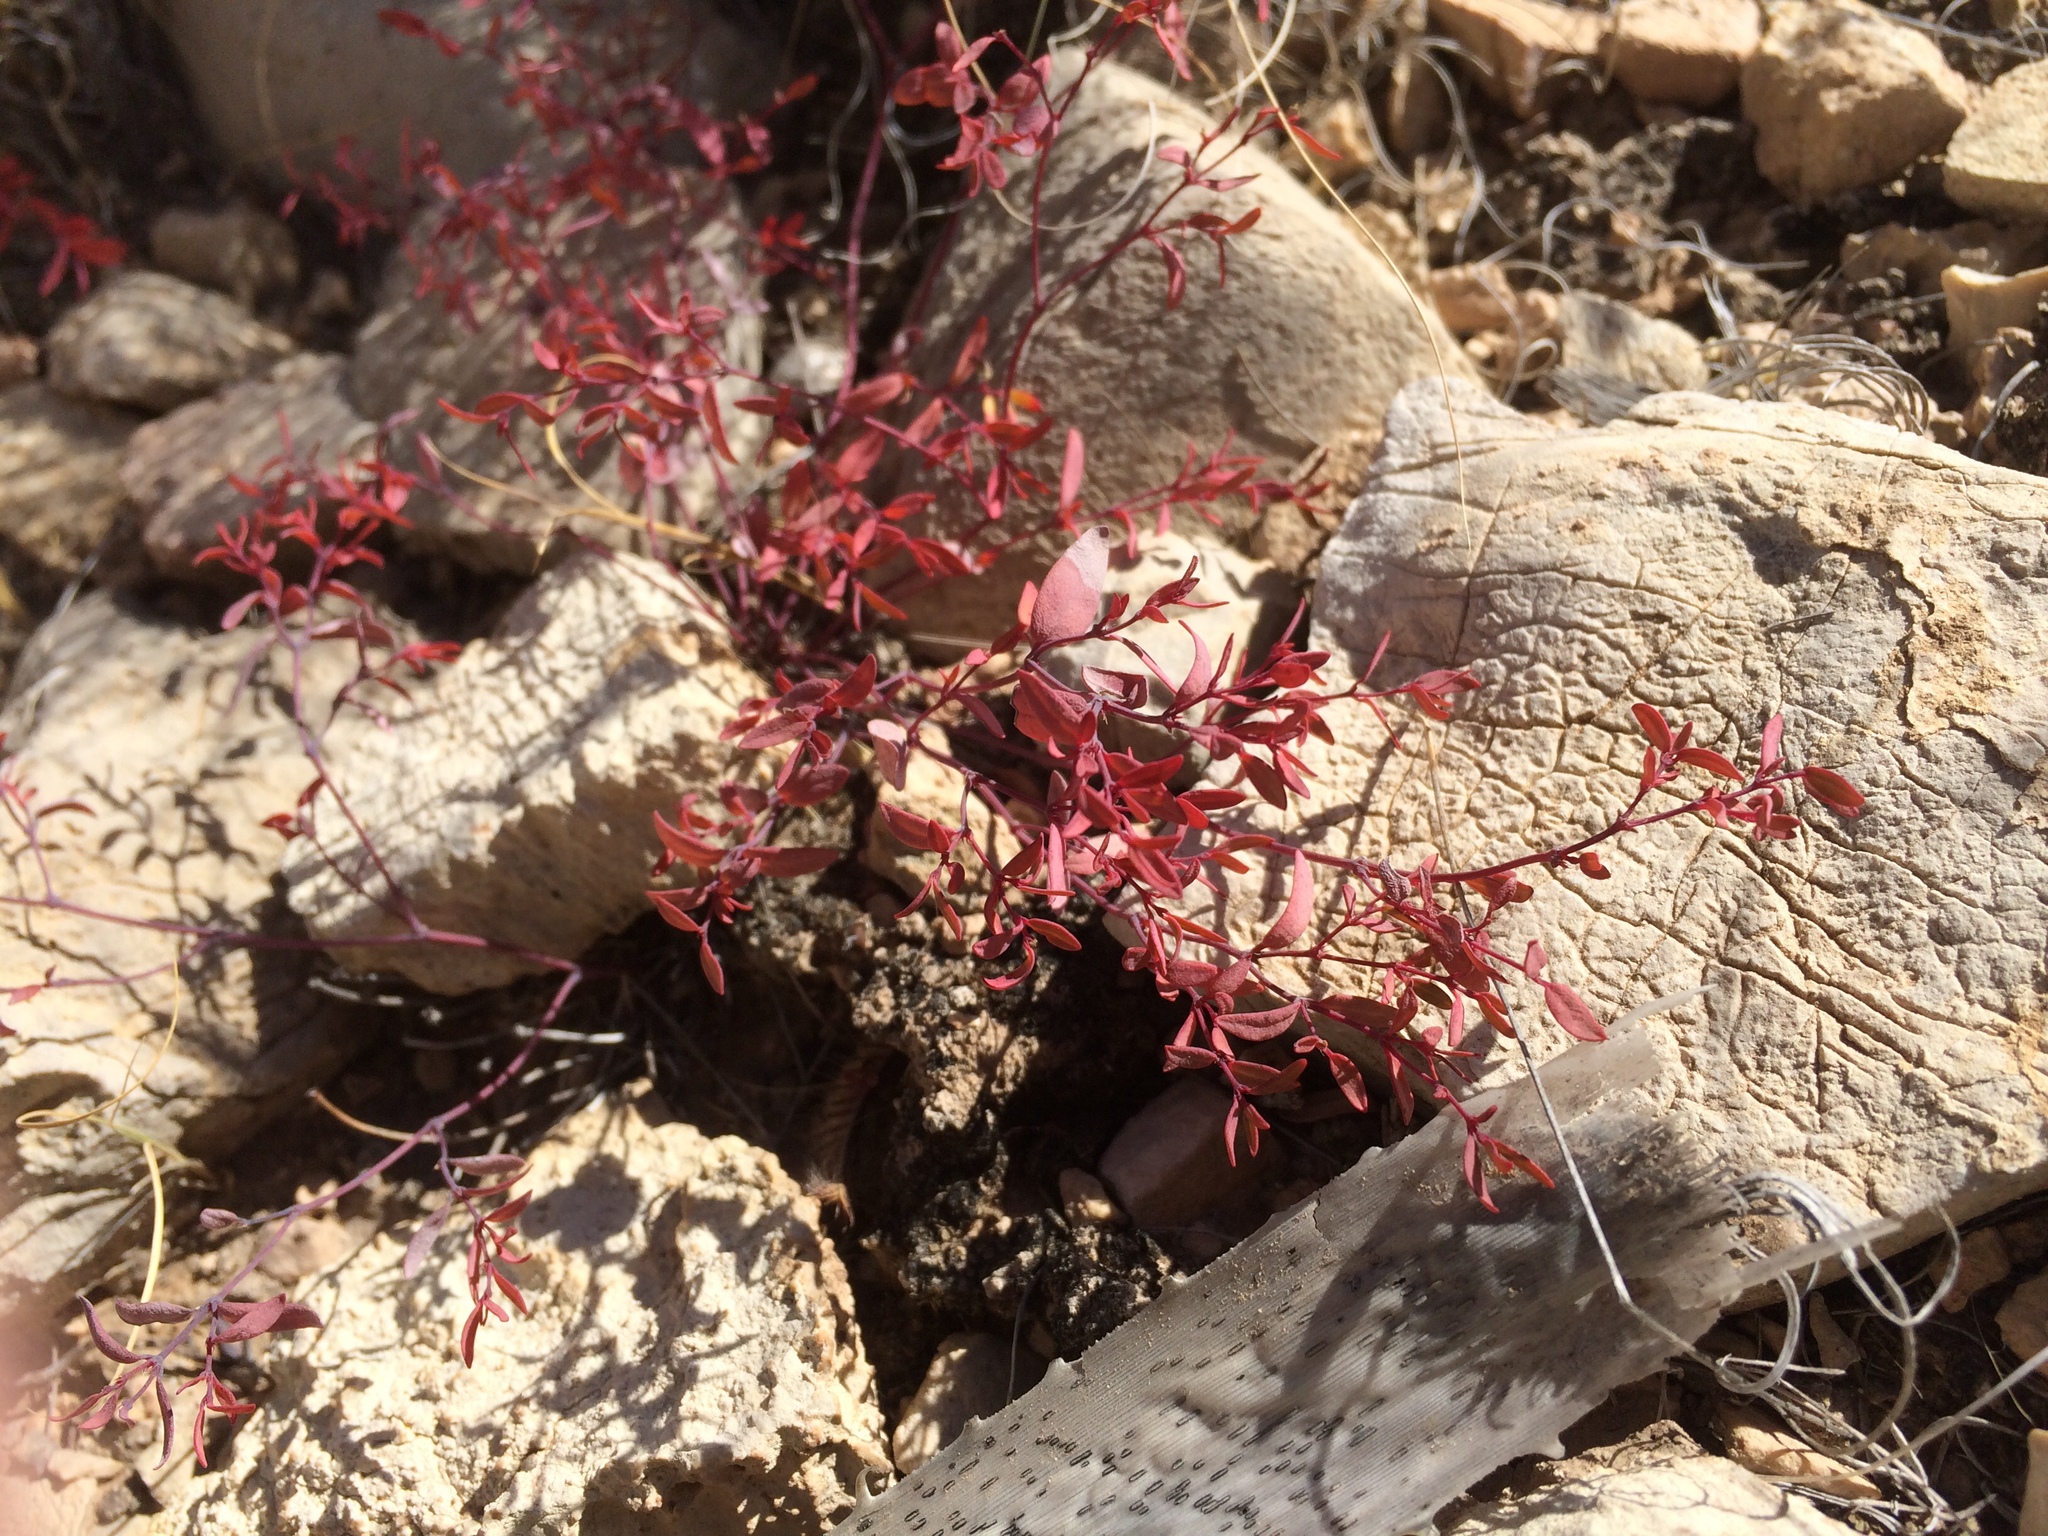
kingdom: Plantae
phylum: Tracheophyta
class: Magnoliopsida
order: Malpighiales
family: Euphorbiaceae
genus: Euphorbia
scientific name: Euphorbia chaetocalyx
